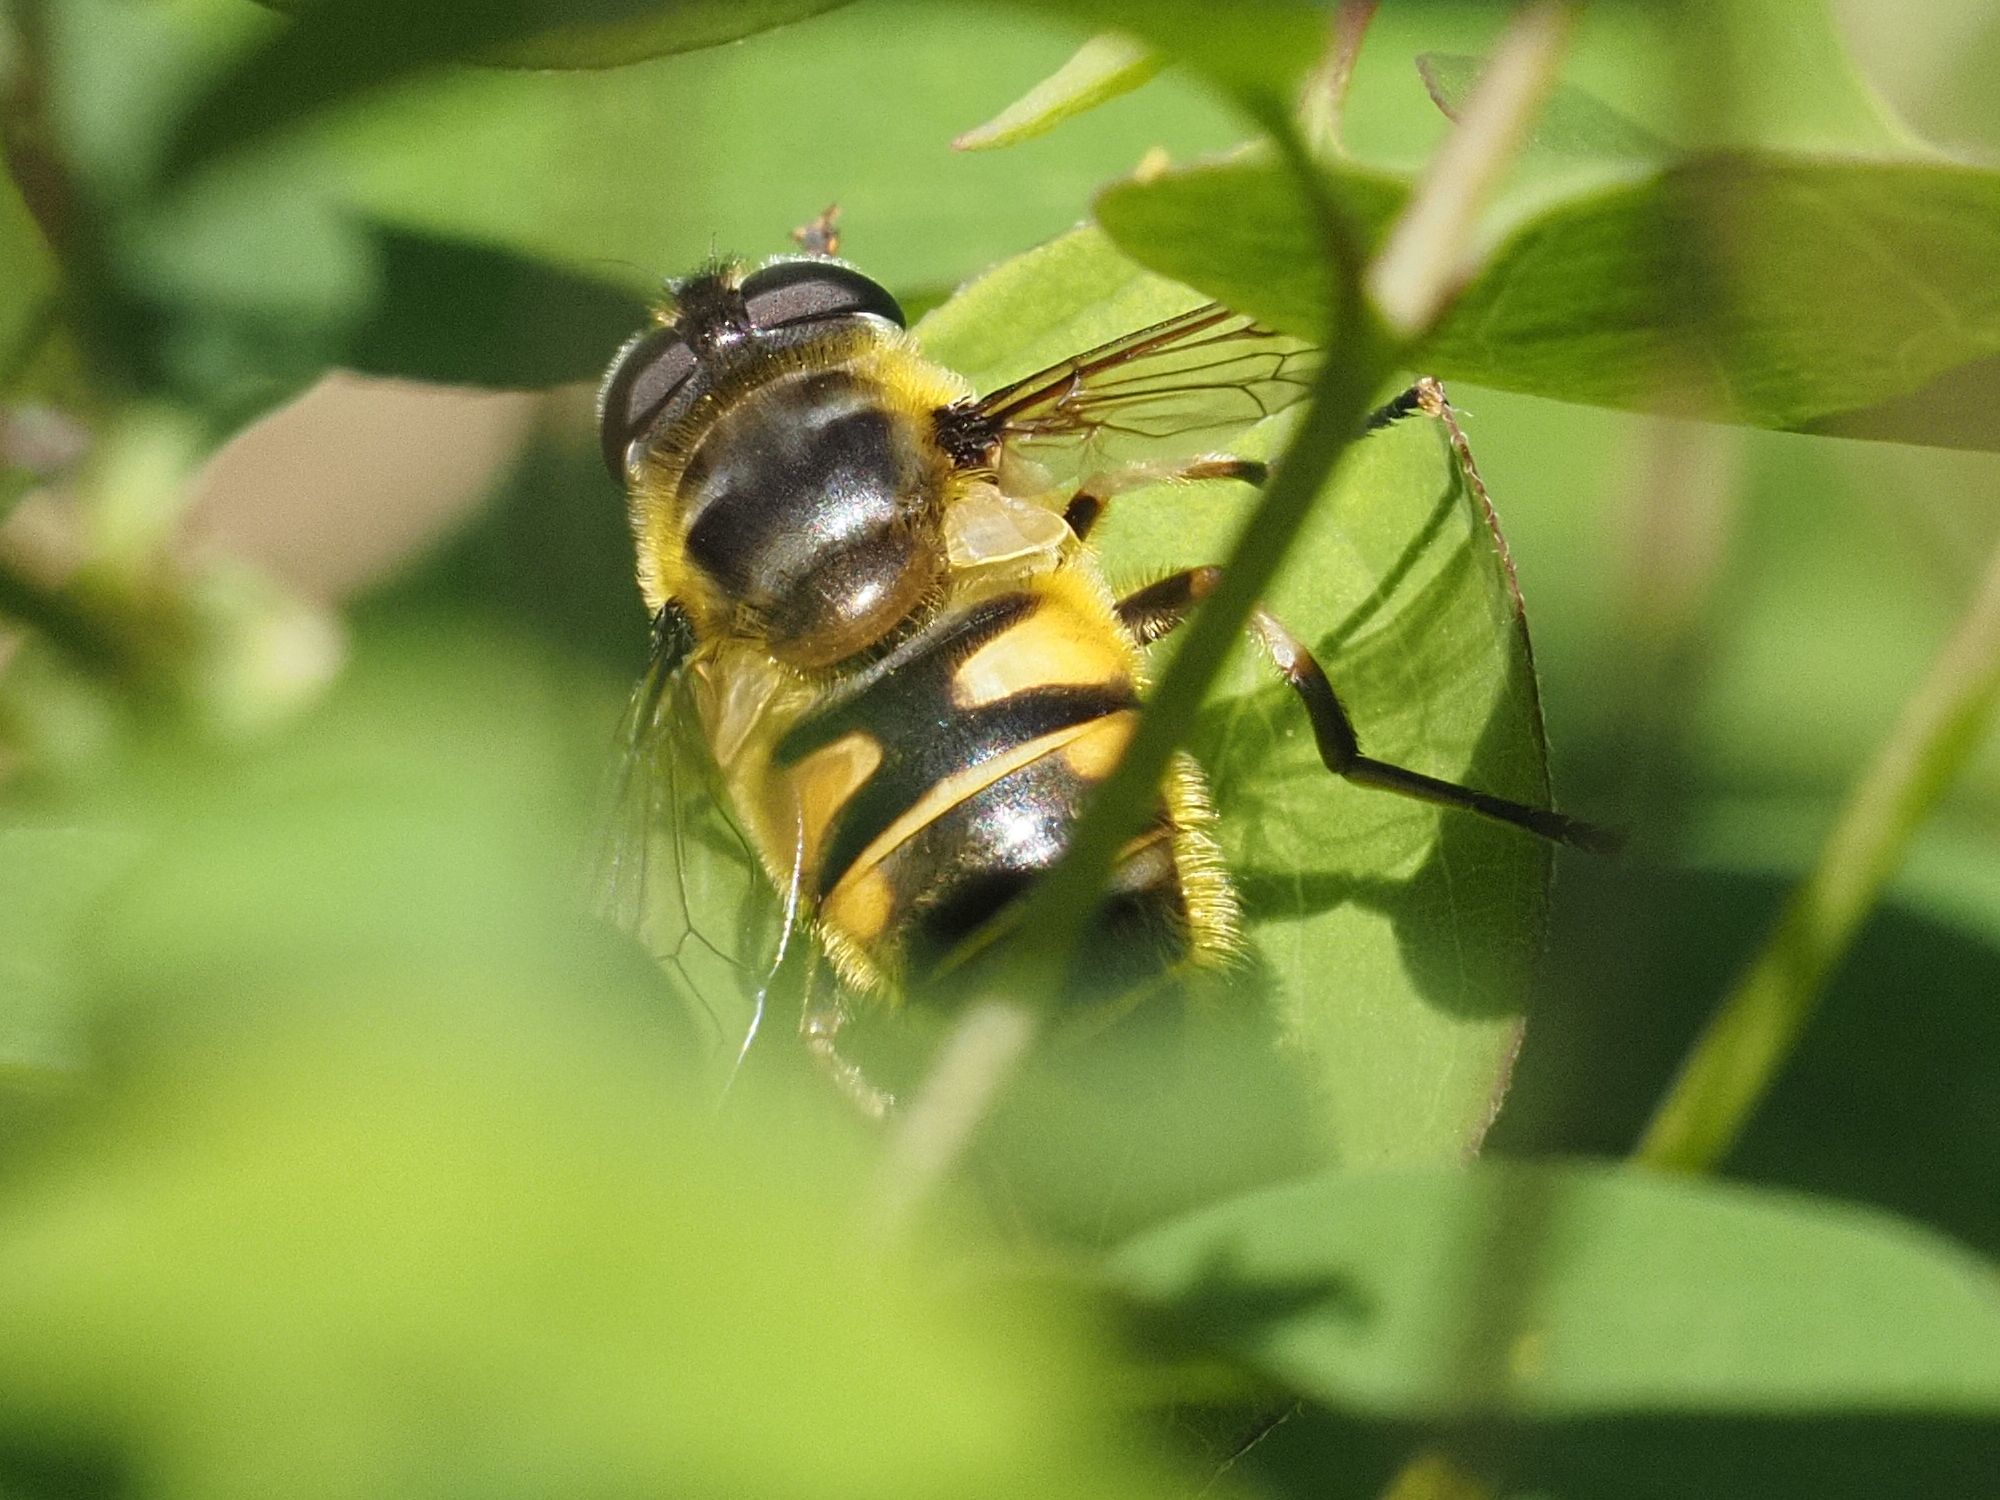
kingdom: Animalia
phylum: Arthropoda
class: Insecta
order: Diptera
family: Syrphidae
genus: Myathropa
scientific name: Myathropa florea
